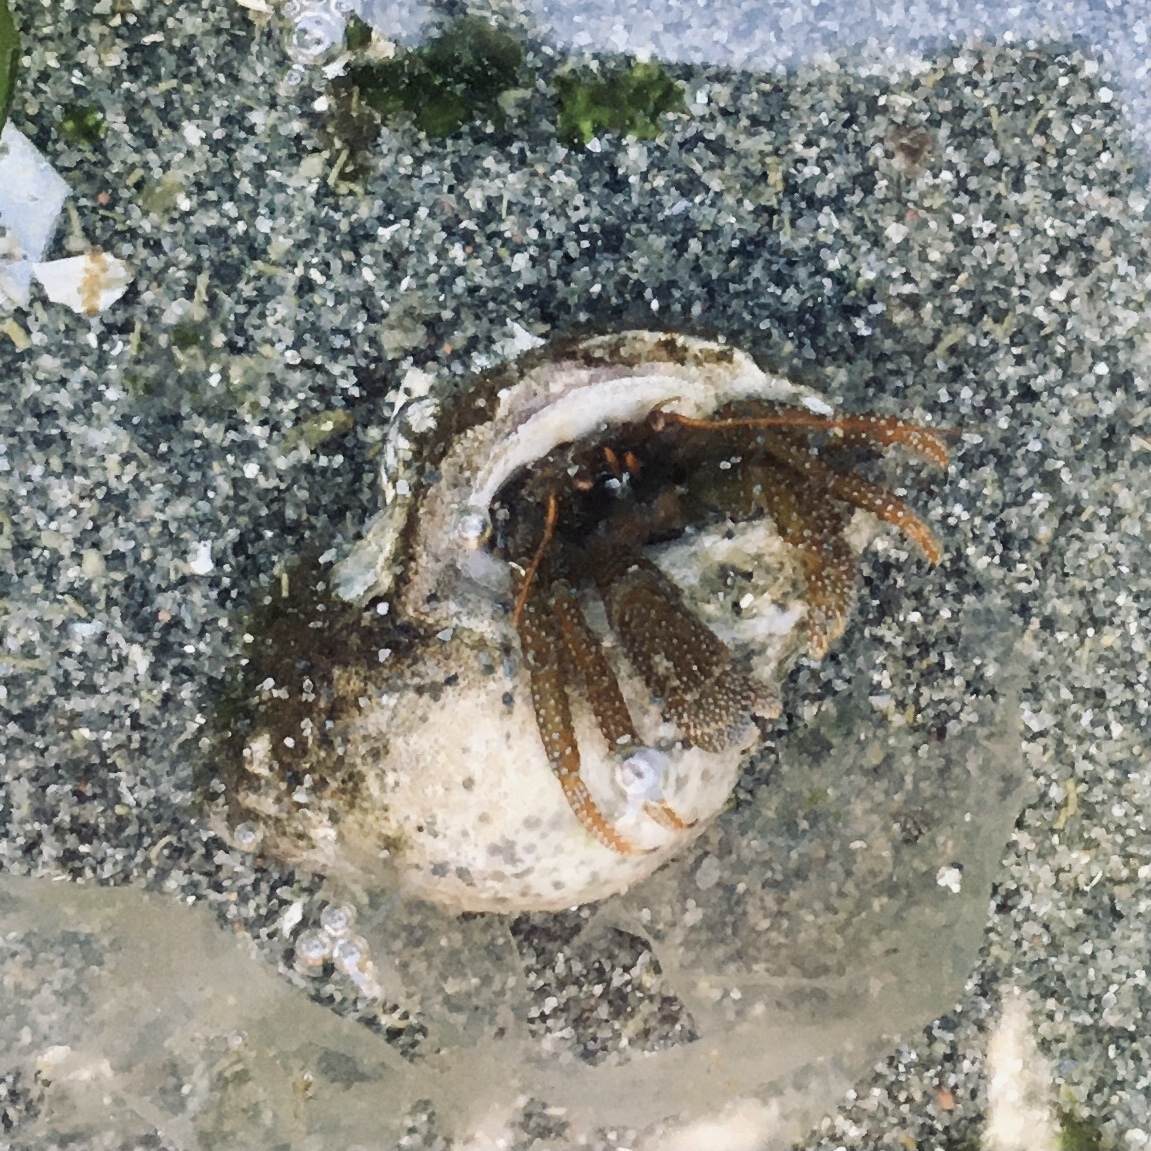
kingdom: Animalia
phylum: Arthropoda
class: Malacostraca
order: Decapoda
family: Paguridae
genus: Pagurus
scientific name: Pagurus granosimanus
